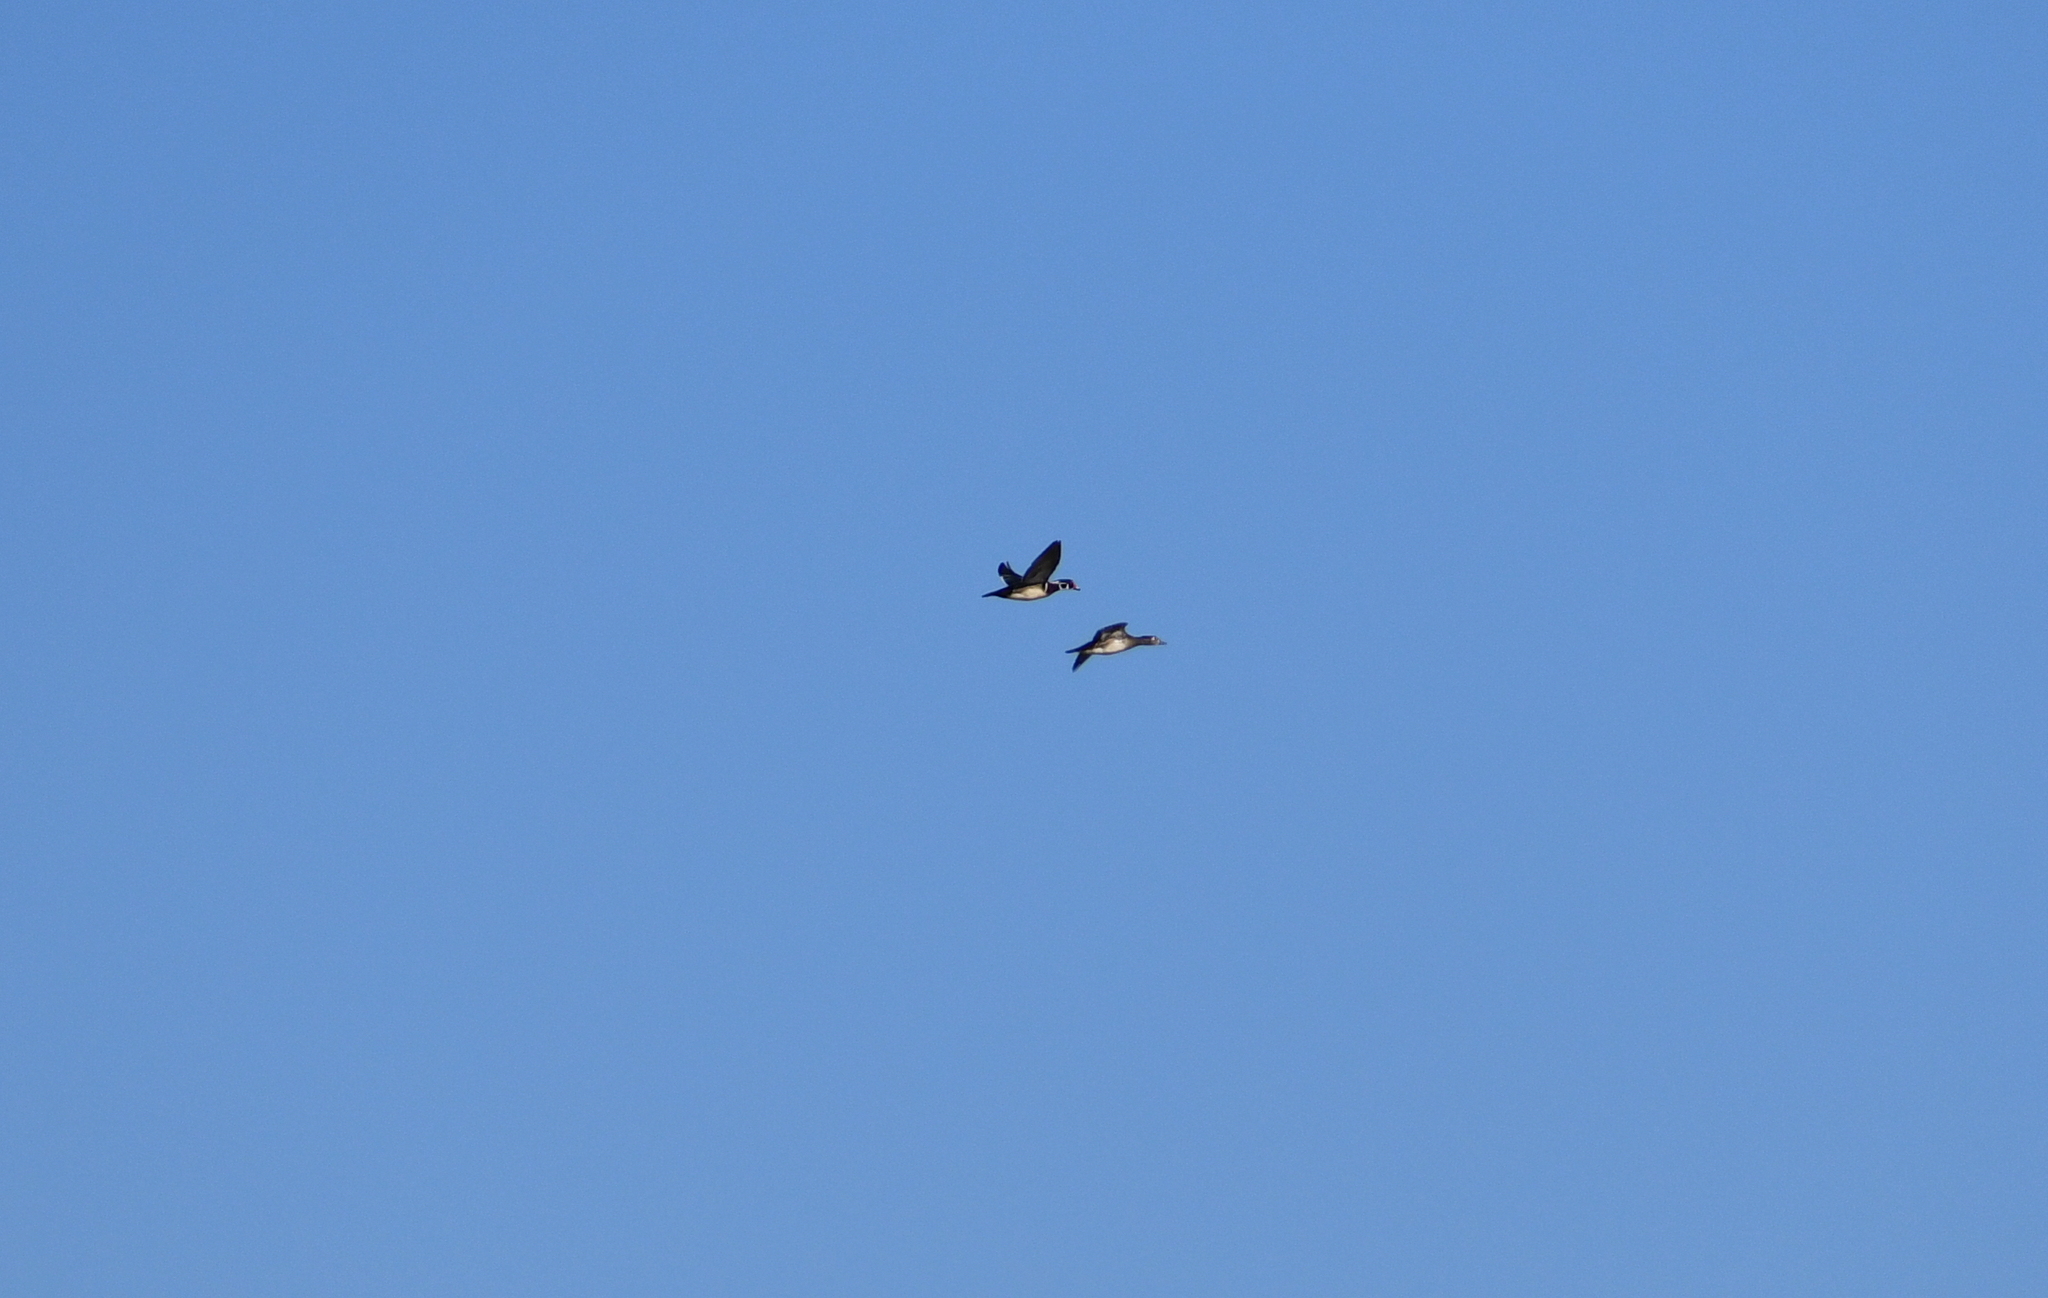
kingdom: Animalia
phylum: Chordata
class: Aves
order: Anseriformes
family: Anatidae
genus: Aix
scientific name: Aix sponsa
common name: Wood duck
